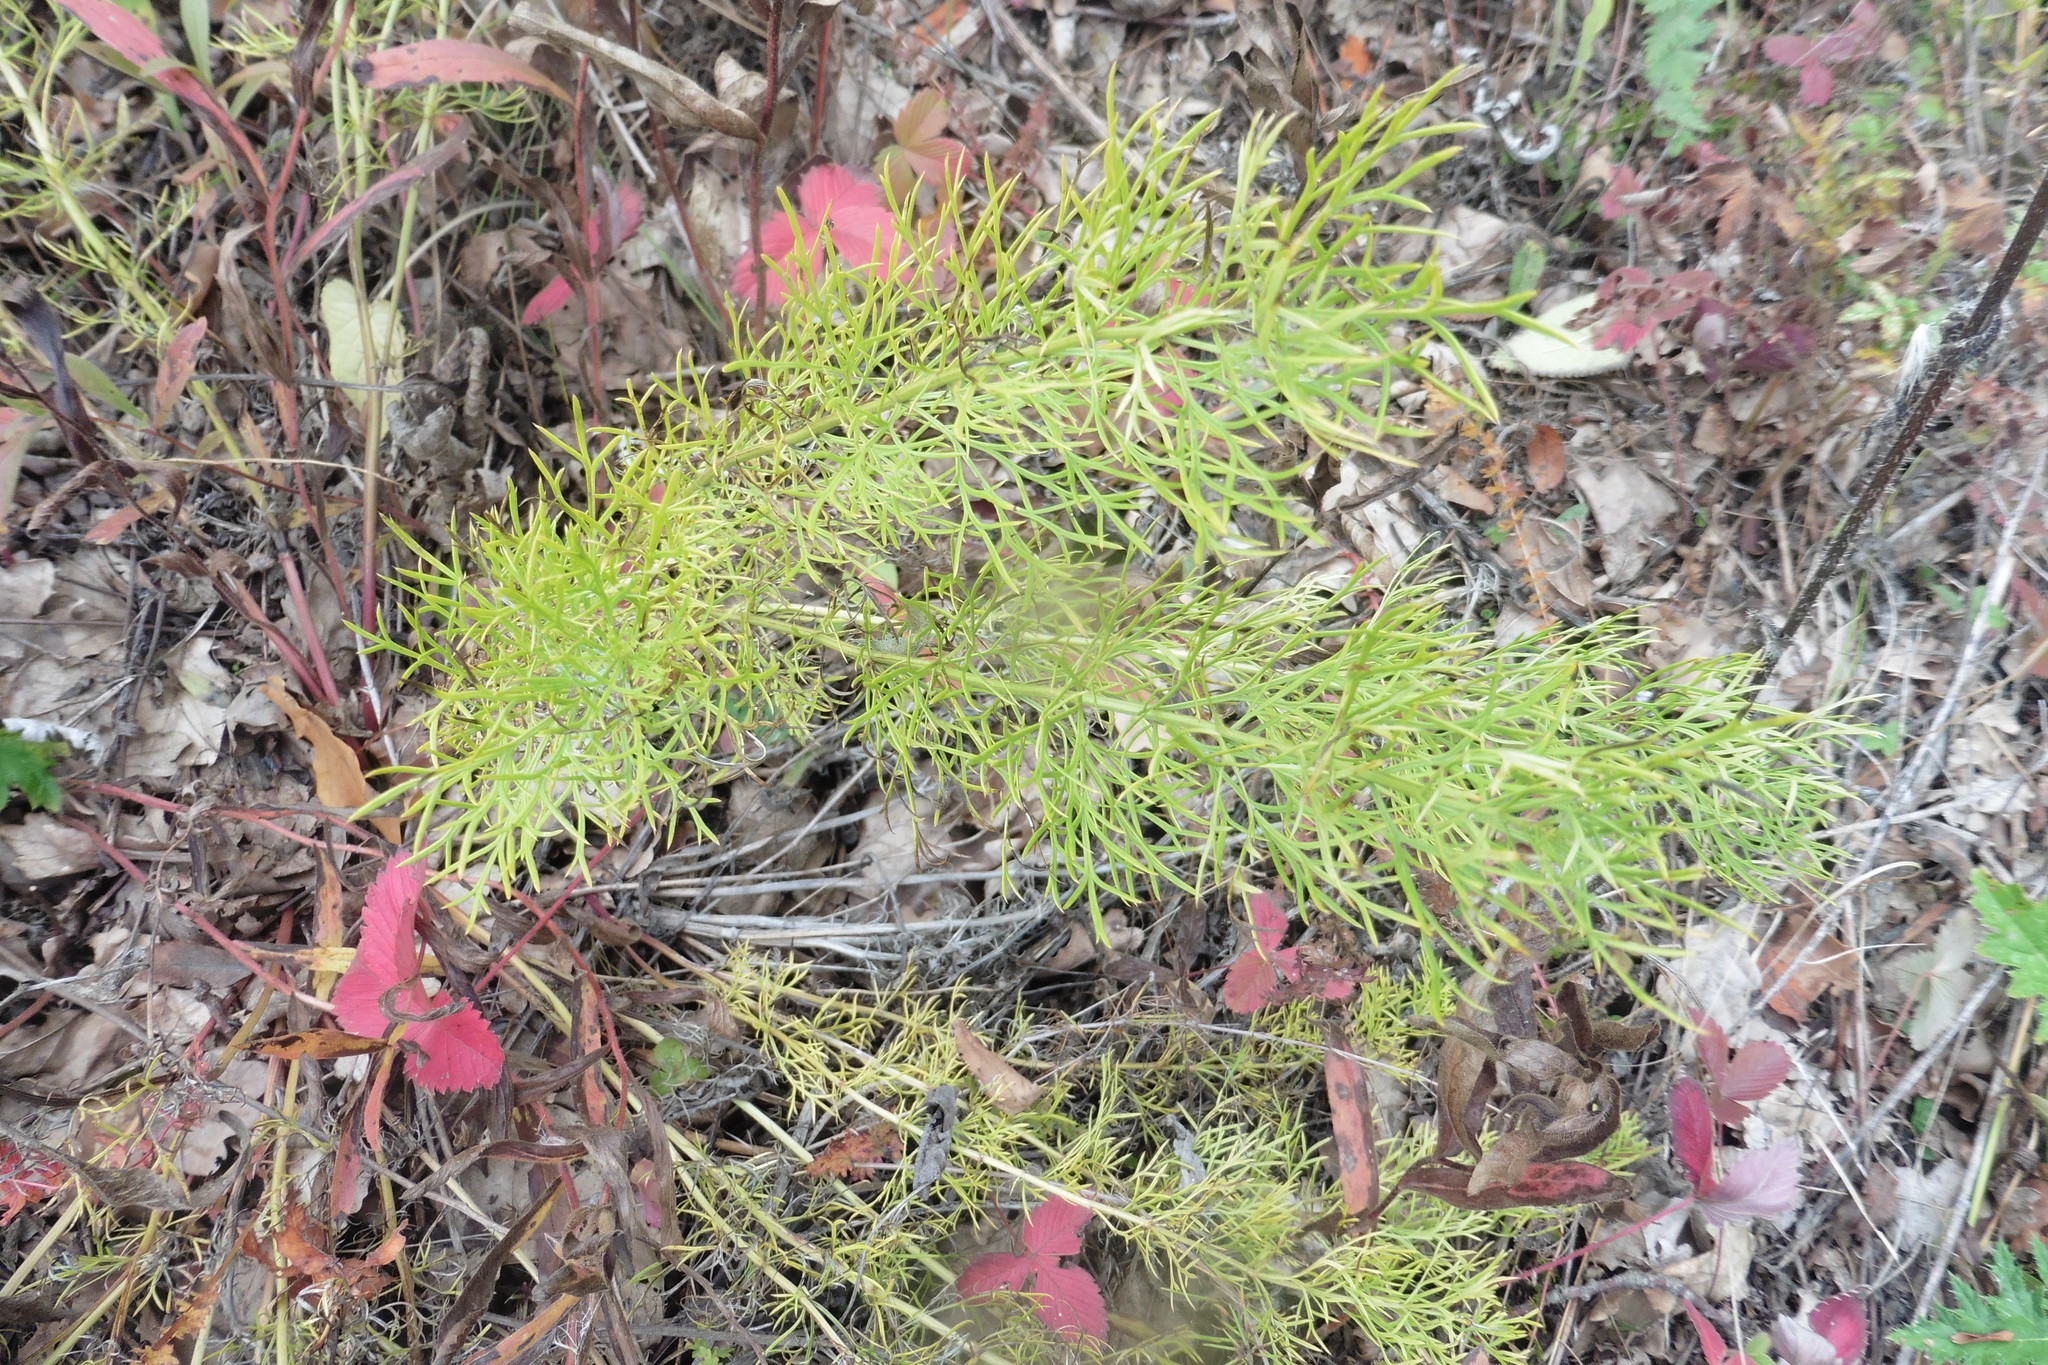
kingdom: Plantae
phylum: Tracheophyta
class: Magnoliopsida
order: Ranunculales
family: Ranunculaceae
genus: Adonis
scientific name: Adonis vernalis
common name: Yellow pheasants-eye
